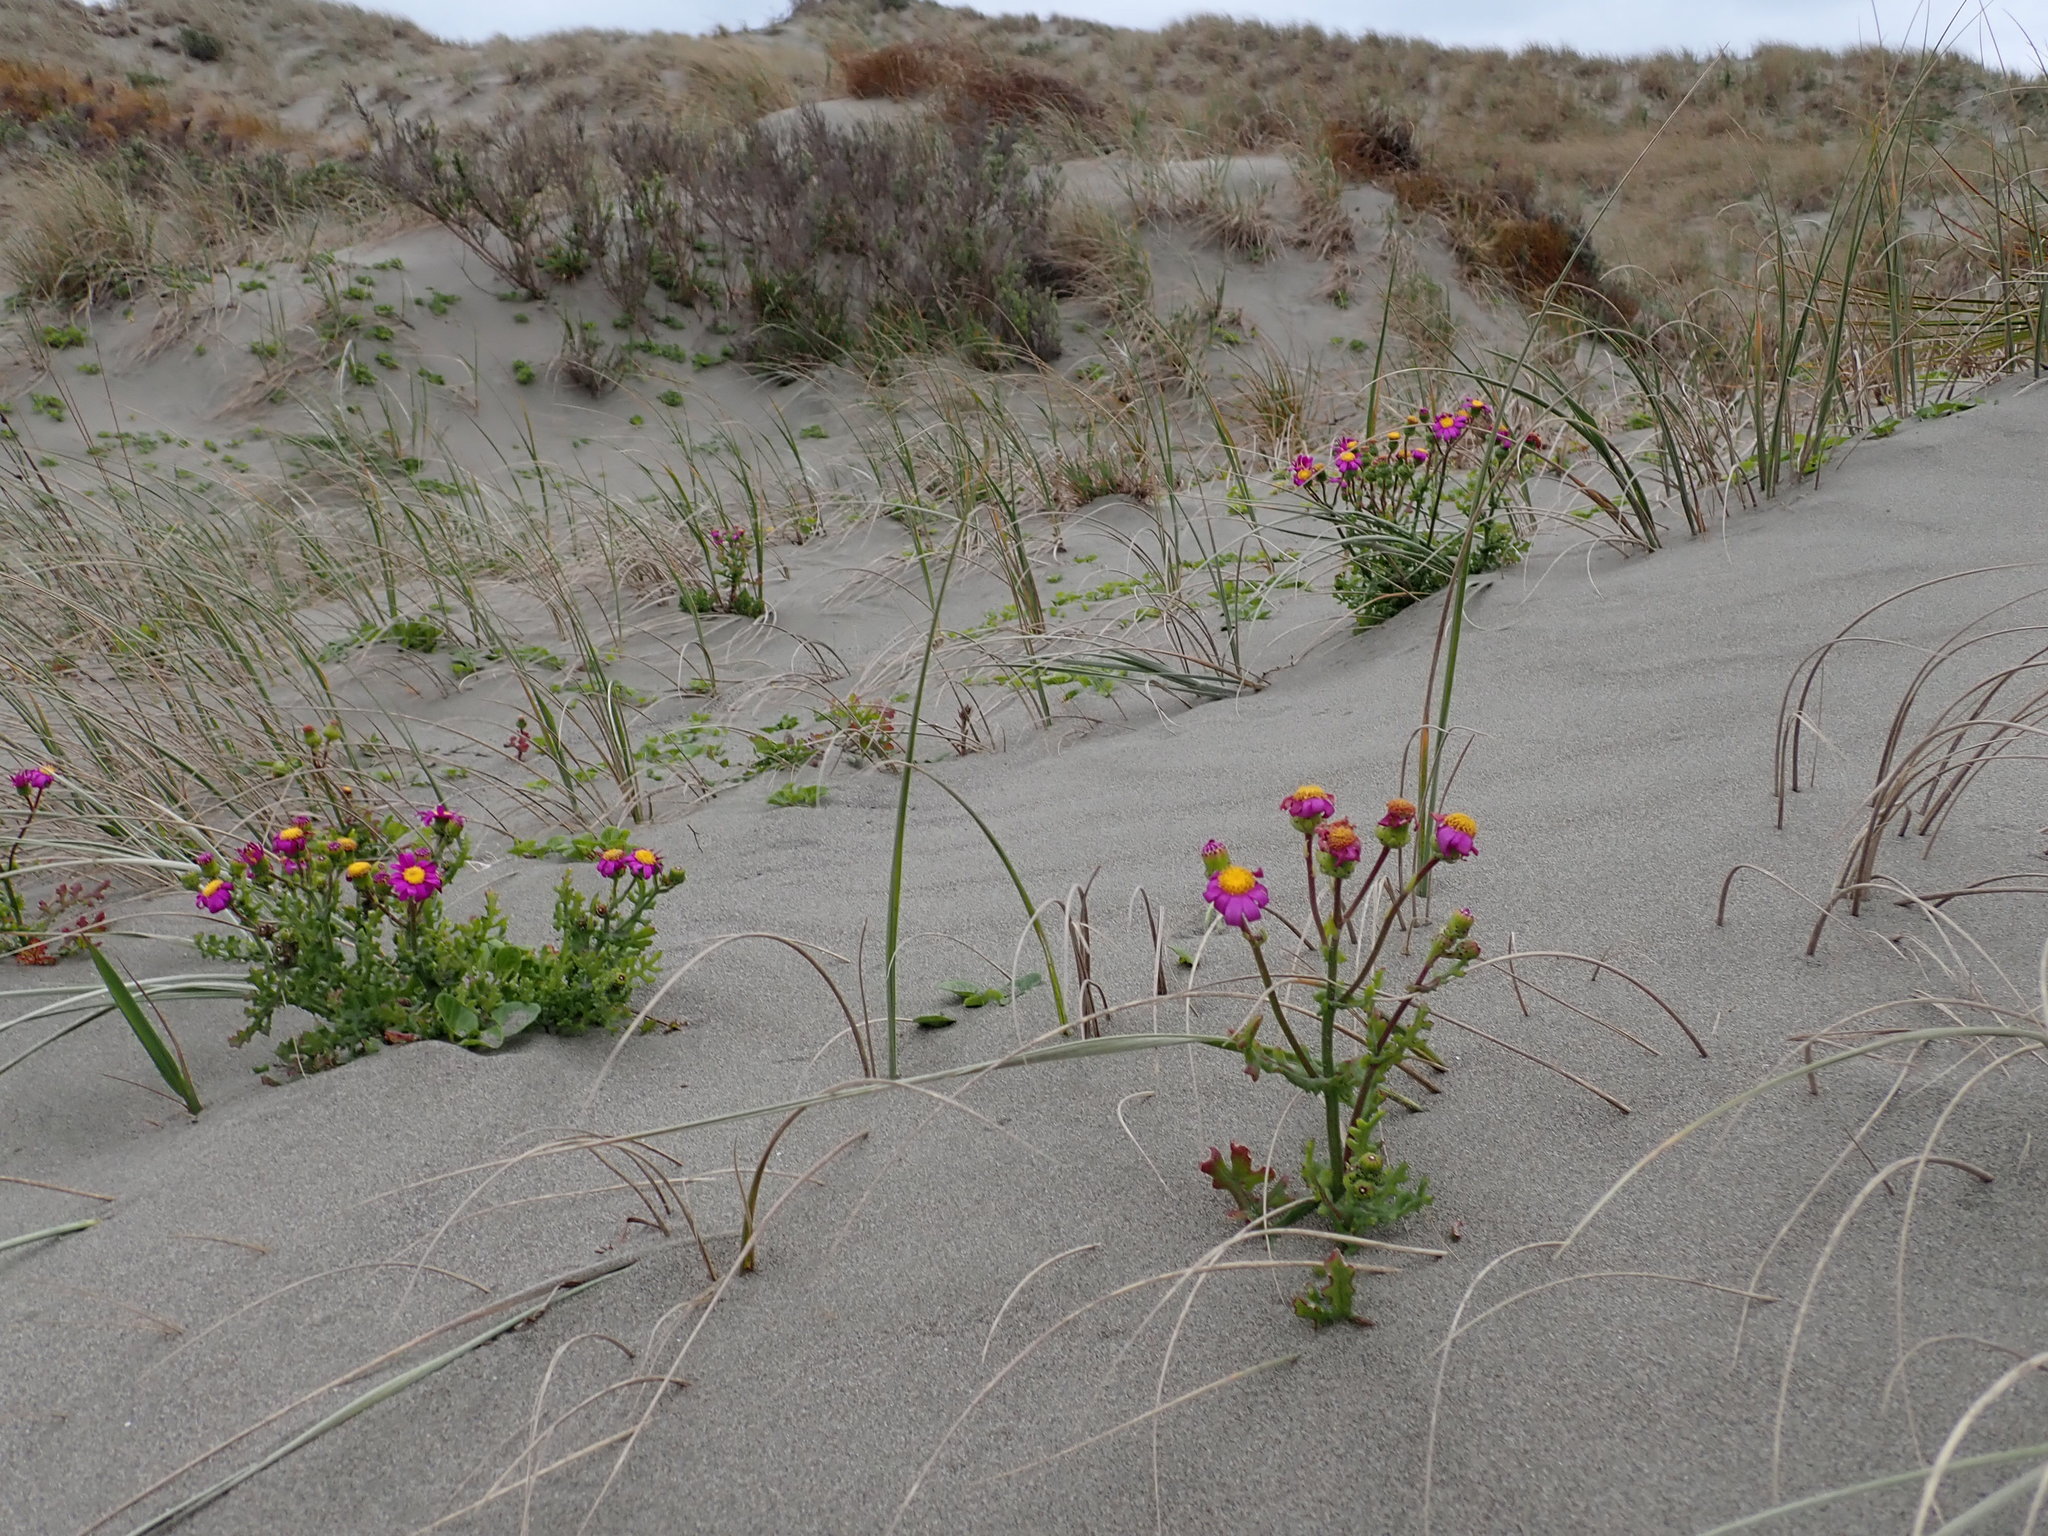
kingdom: Plantae
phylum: Tracheophyta
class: Magnoliopsida
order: Asterales
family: Asteraceae
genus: Senecio
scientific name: Senecio elegans
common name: Purple groundsel
